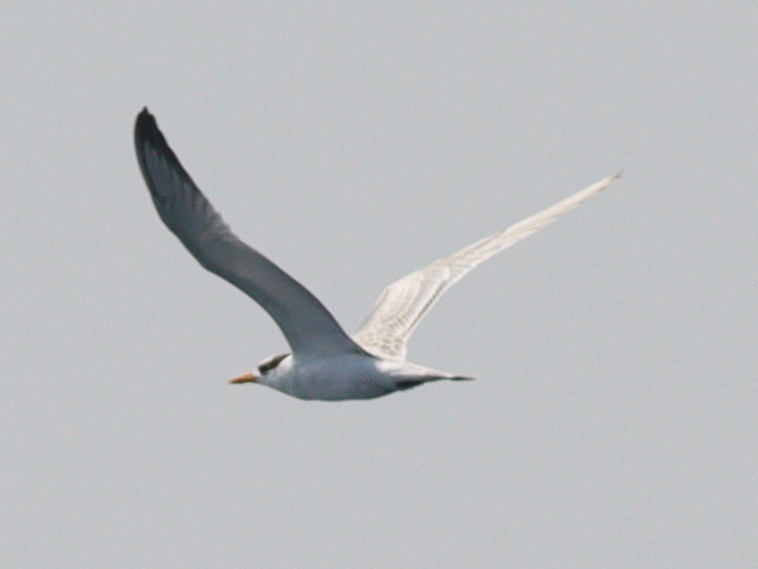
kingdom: Animalia
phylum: Chordata
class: Aves
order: Charadriiformes
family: Laridae
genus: Thalasseus
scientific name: Thalasseus bengalensis
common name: Lesser crested tern
